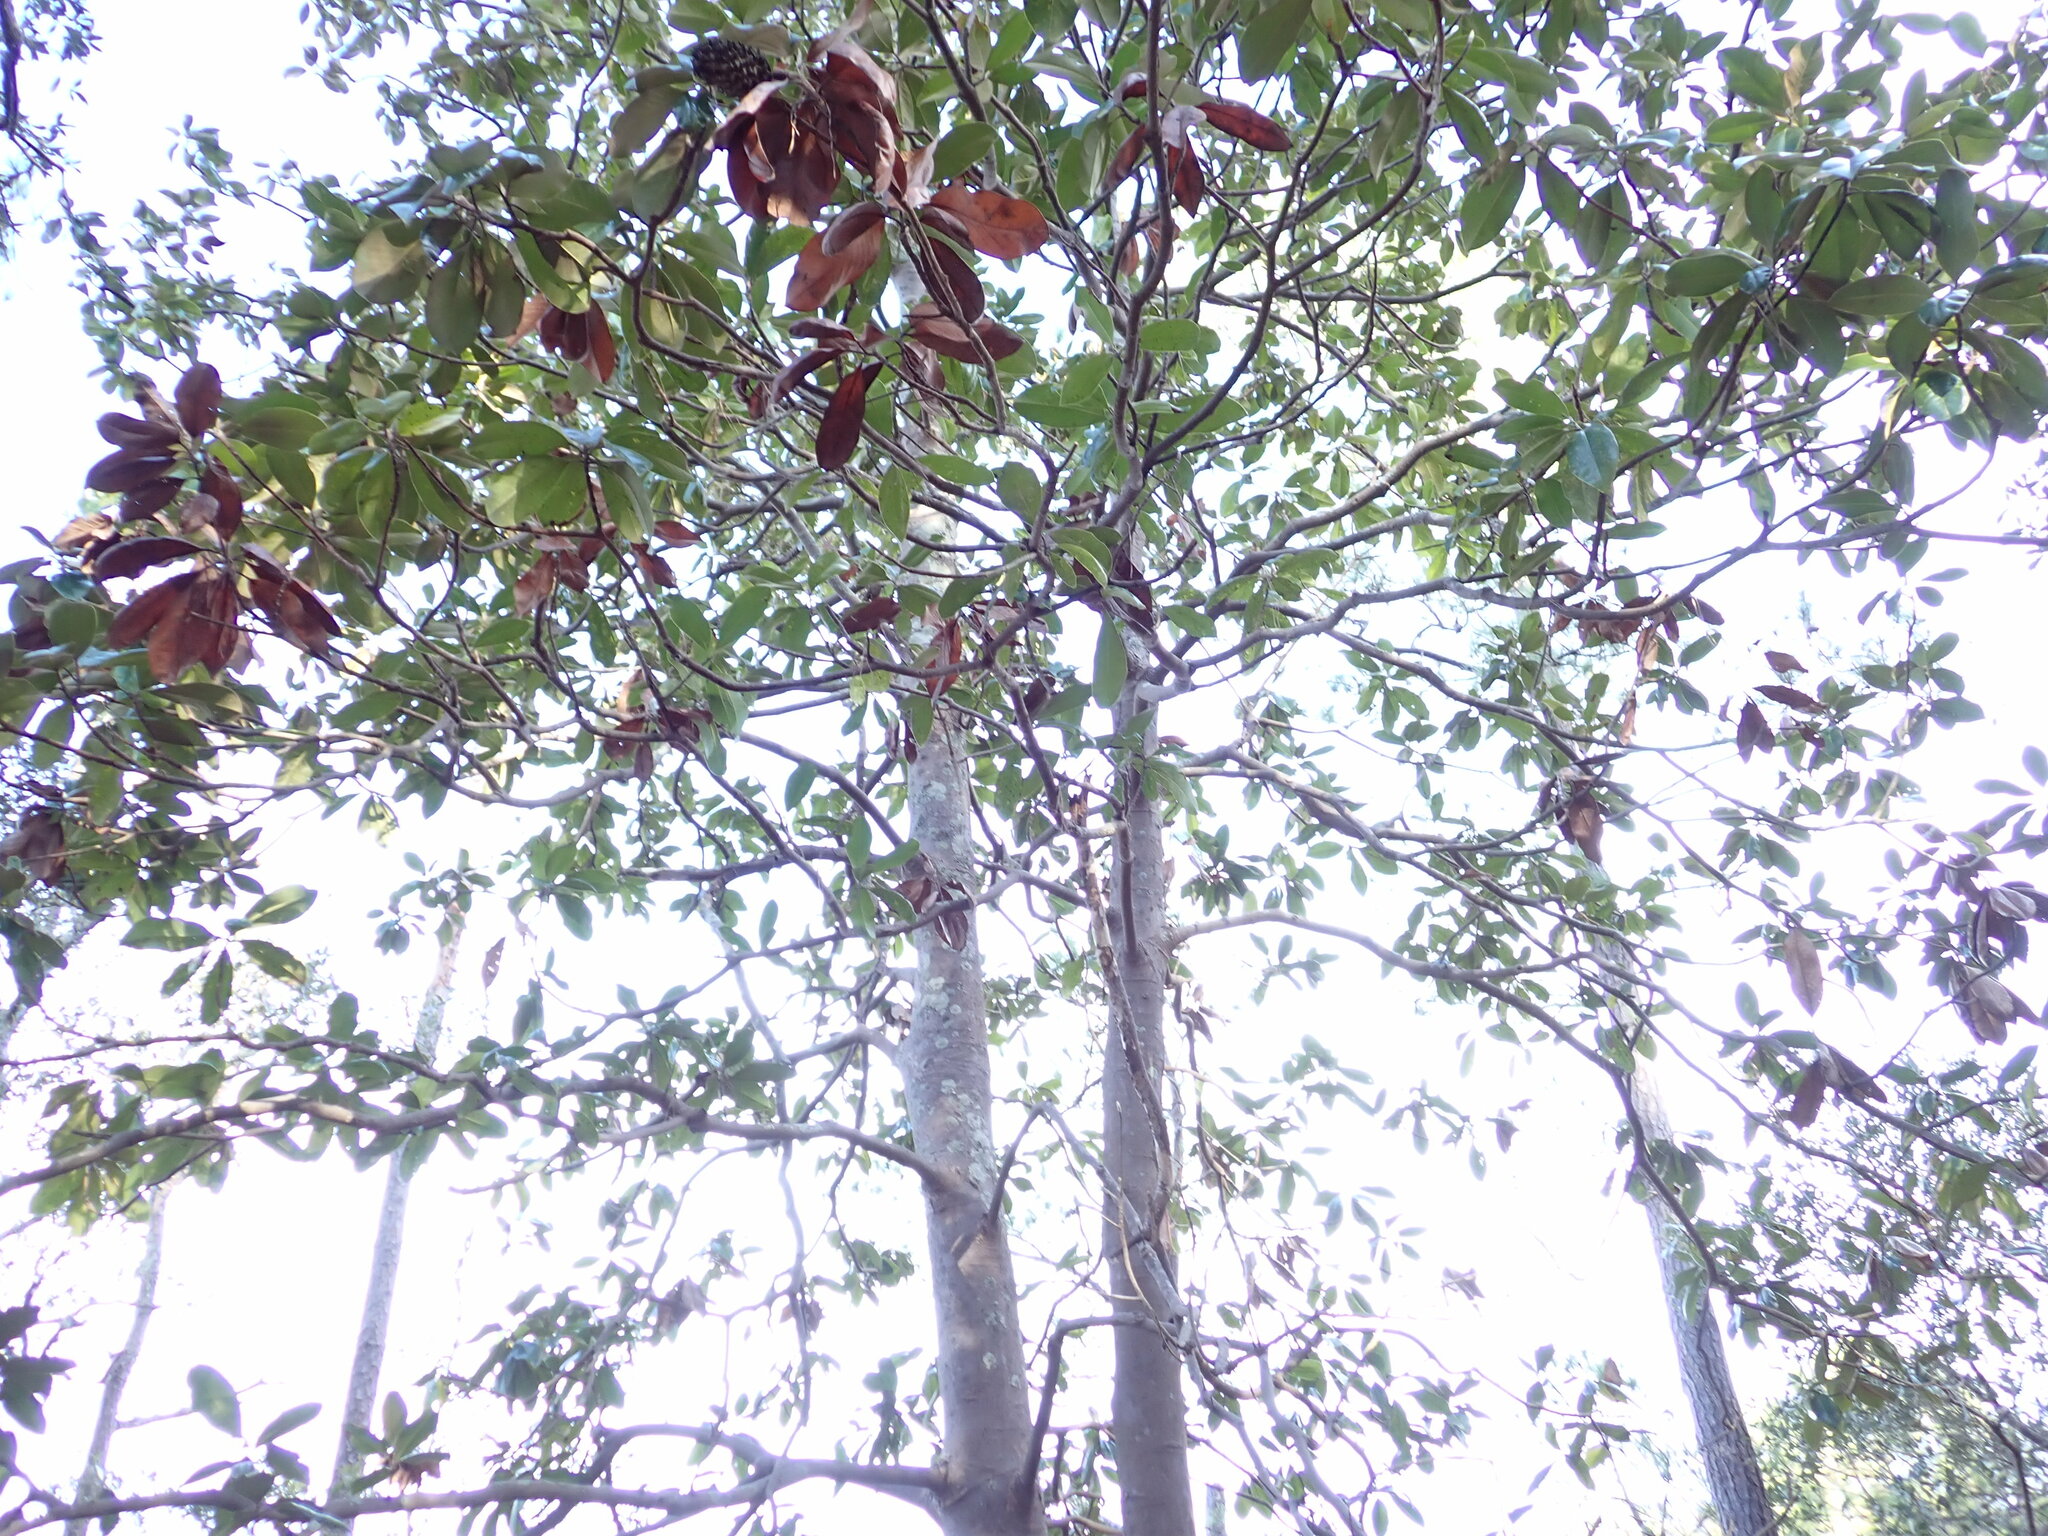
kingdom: Plantae
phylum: Tracheophyta
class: Magnoliopsida
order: Magnoliales
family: Magnoliaceae
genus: Magnolia
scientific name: Magnolia grandiflora
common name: Southern magnolia
